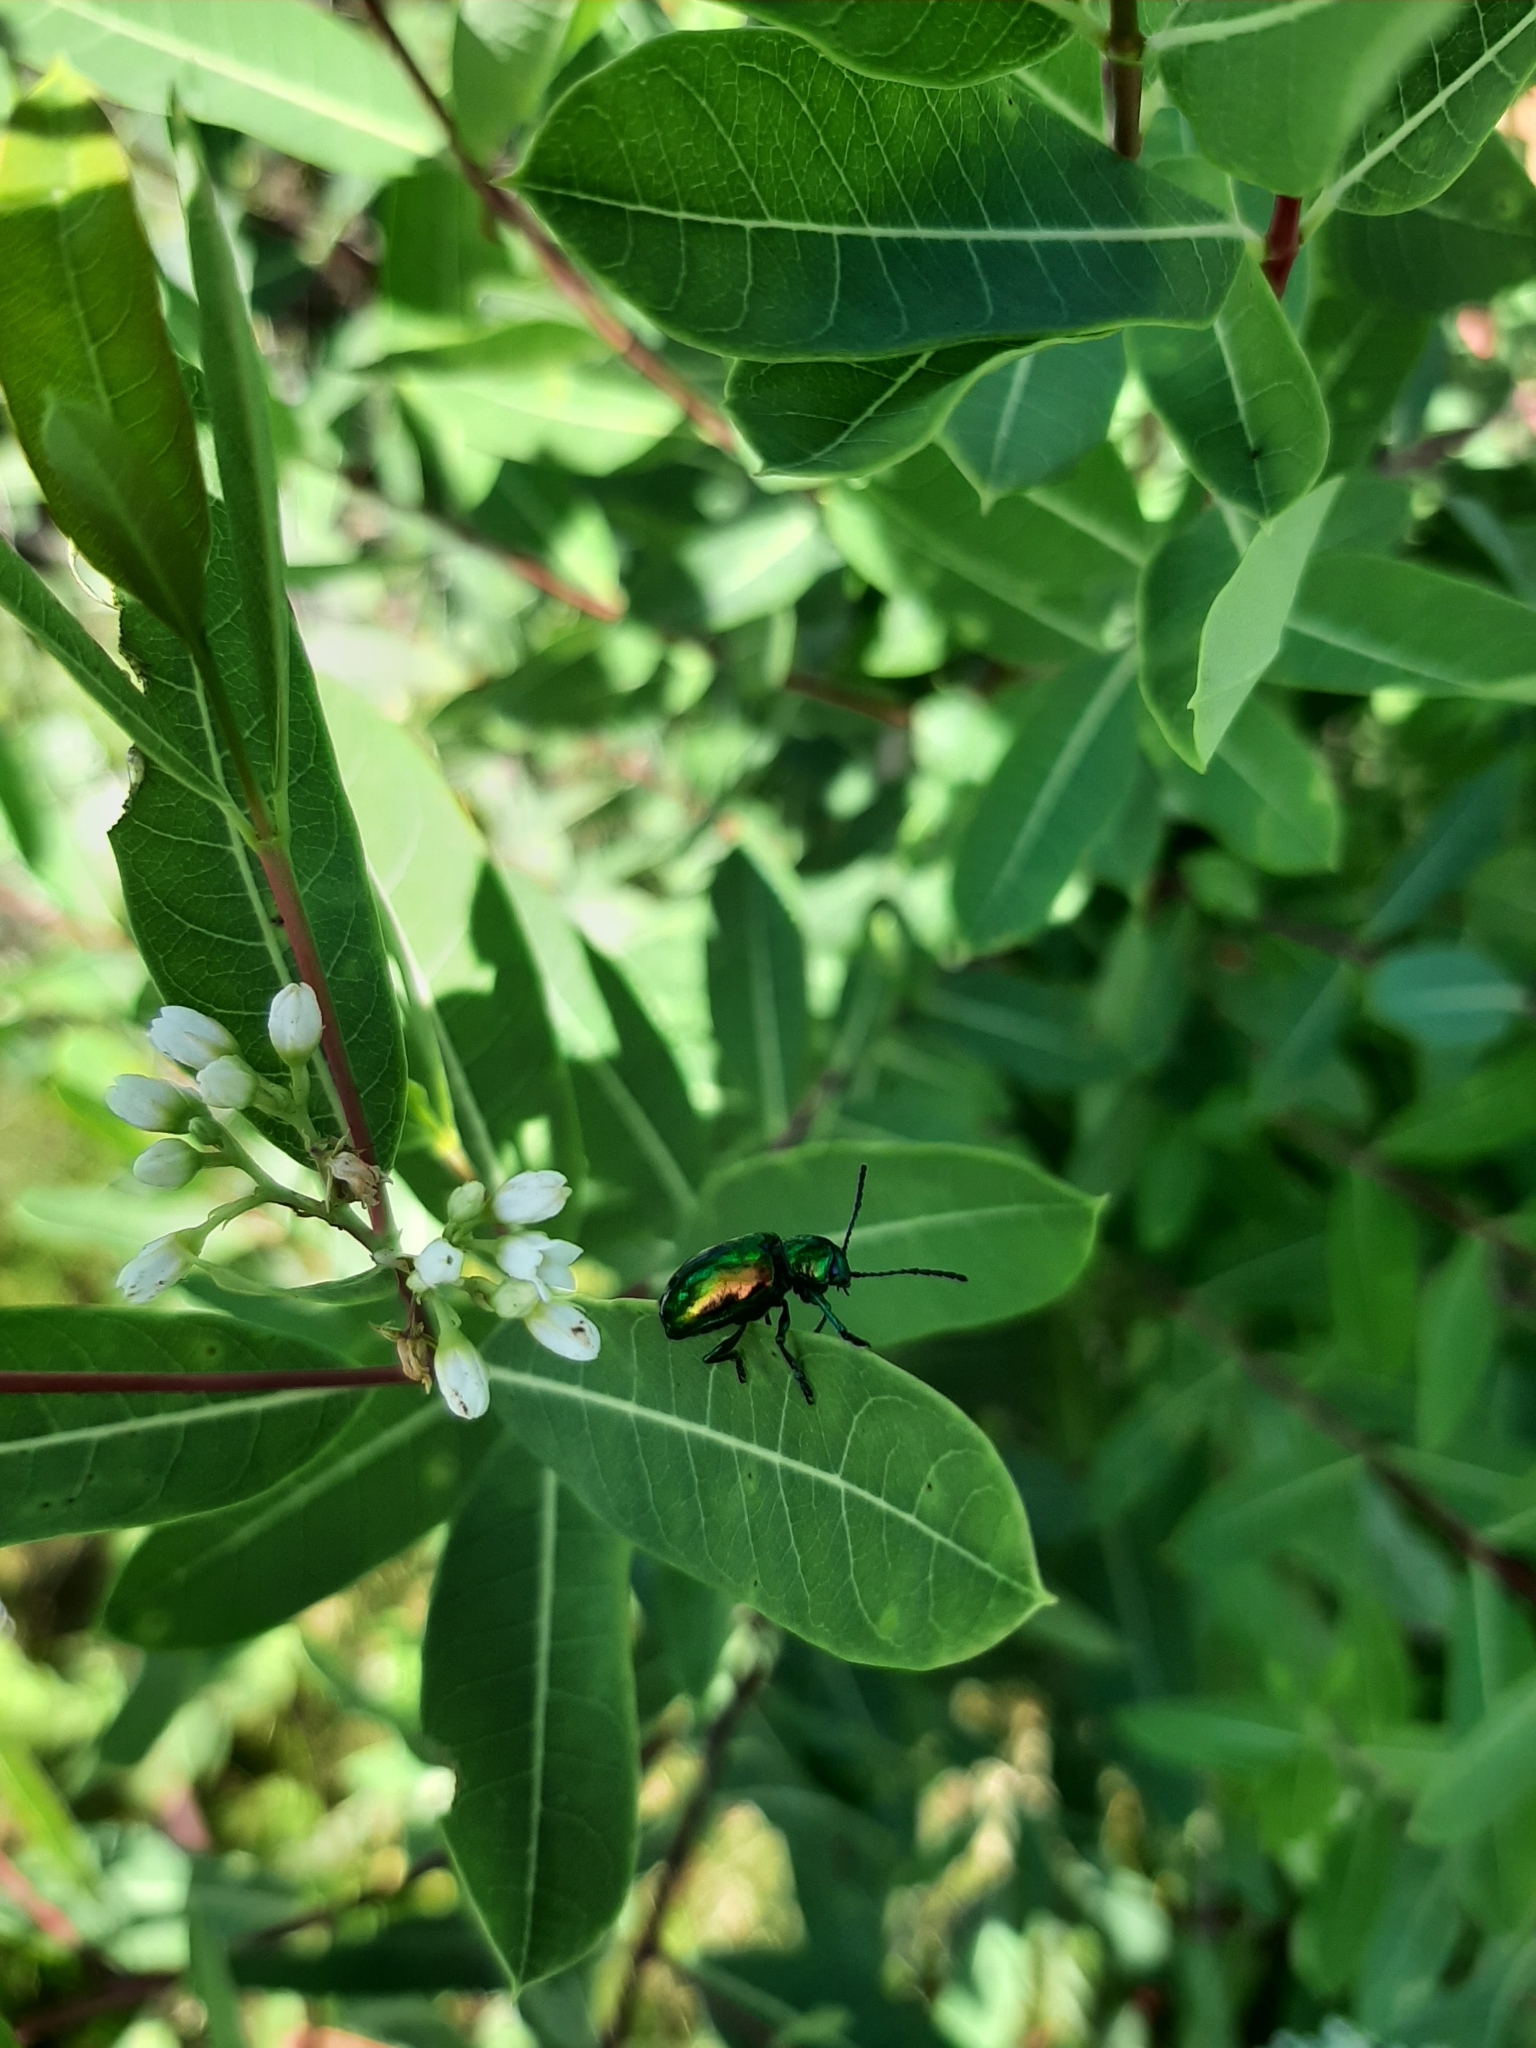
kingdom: Animalia
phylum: Arthropoda
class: Insecta
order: Coleoptera
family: Chrysomelidae
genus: Chrysochus
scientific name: Chrysochus auratus
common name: Dogbane leaf beetle
